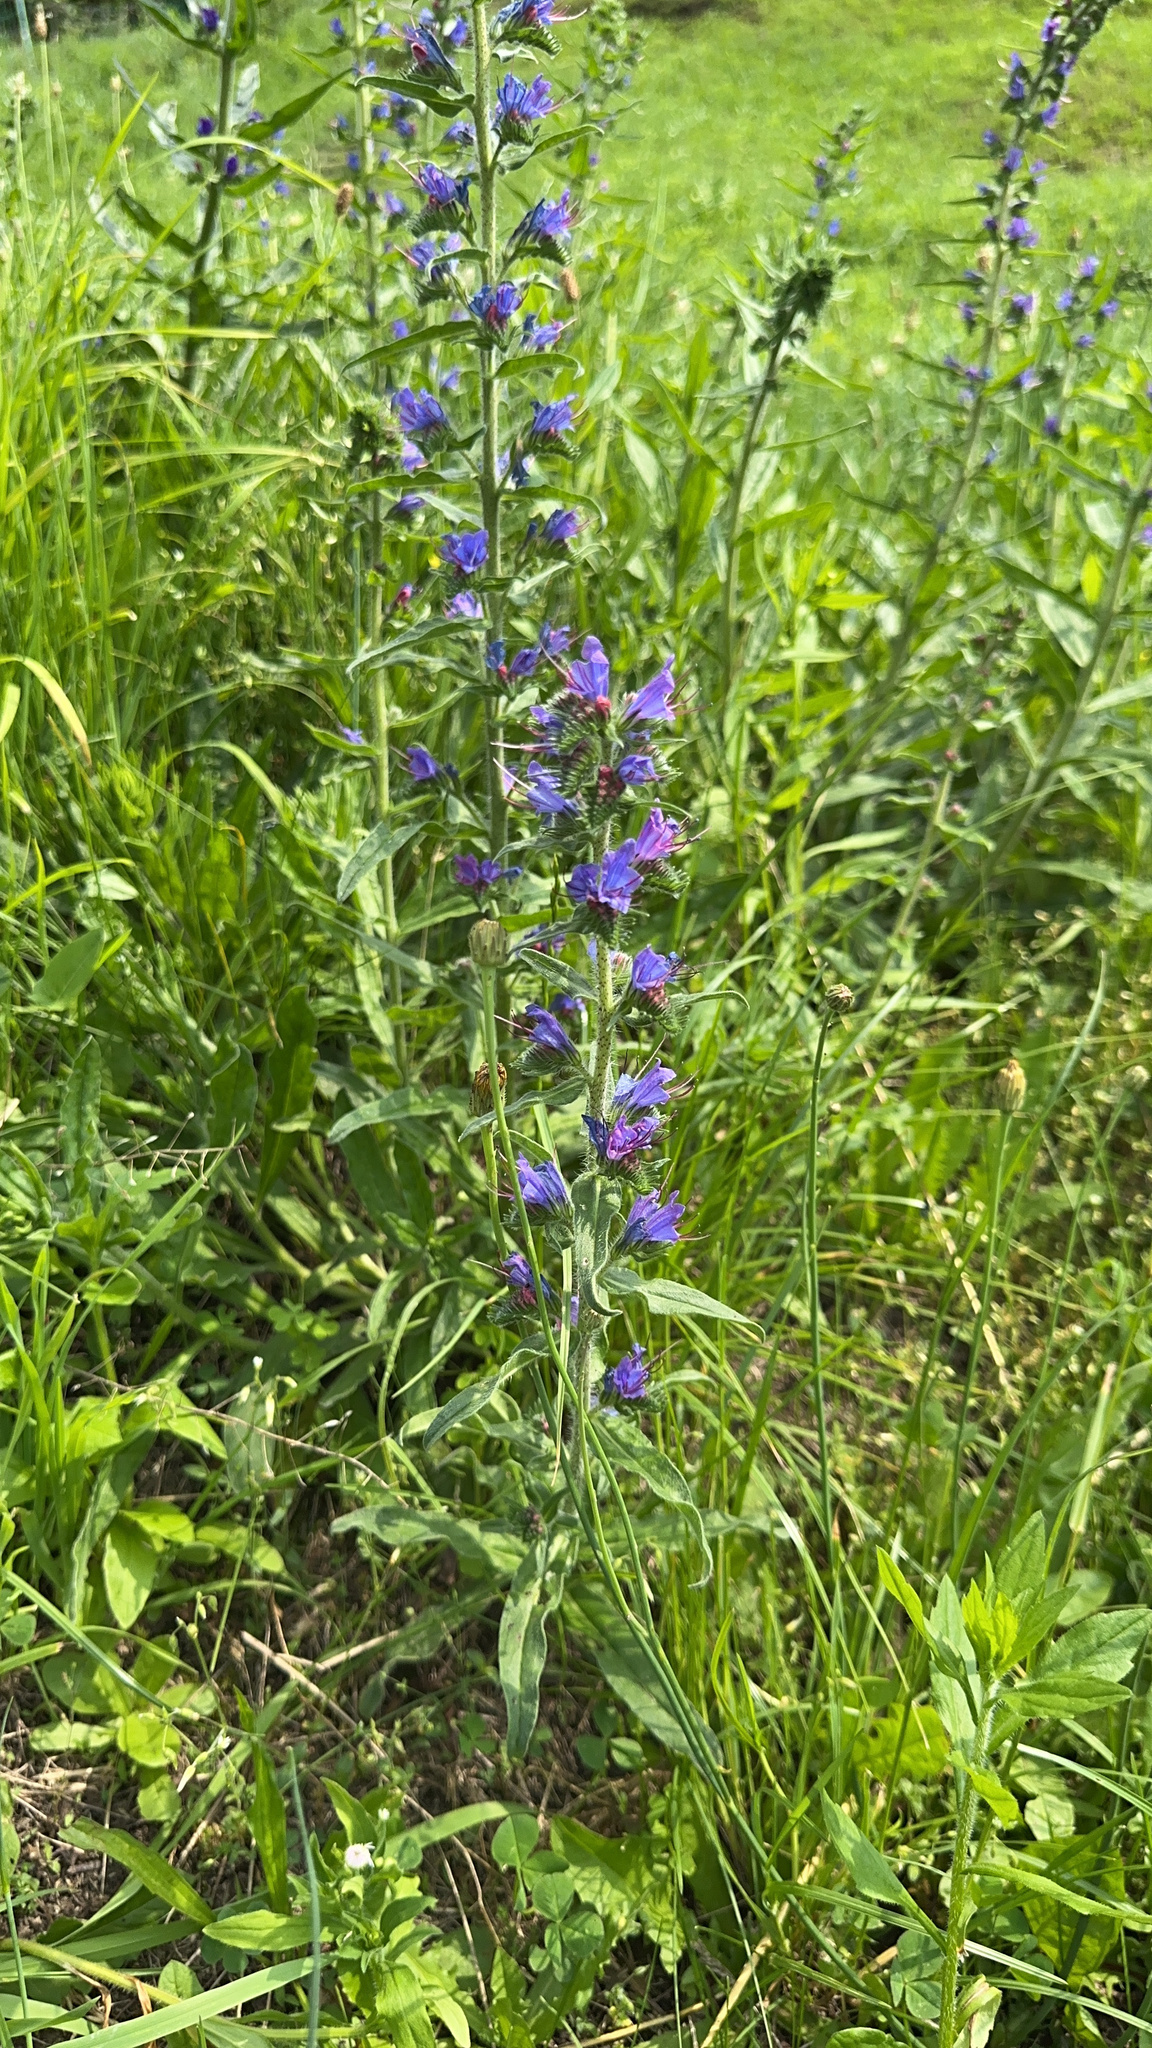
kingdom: Plantae
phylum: Tracheophyta
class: Magnoliopsida
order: Boraginales
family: Boraginaceae
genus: Echium
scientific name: Echium vulgare
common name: Common viper's bugloss
